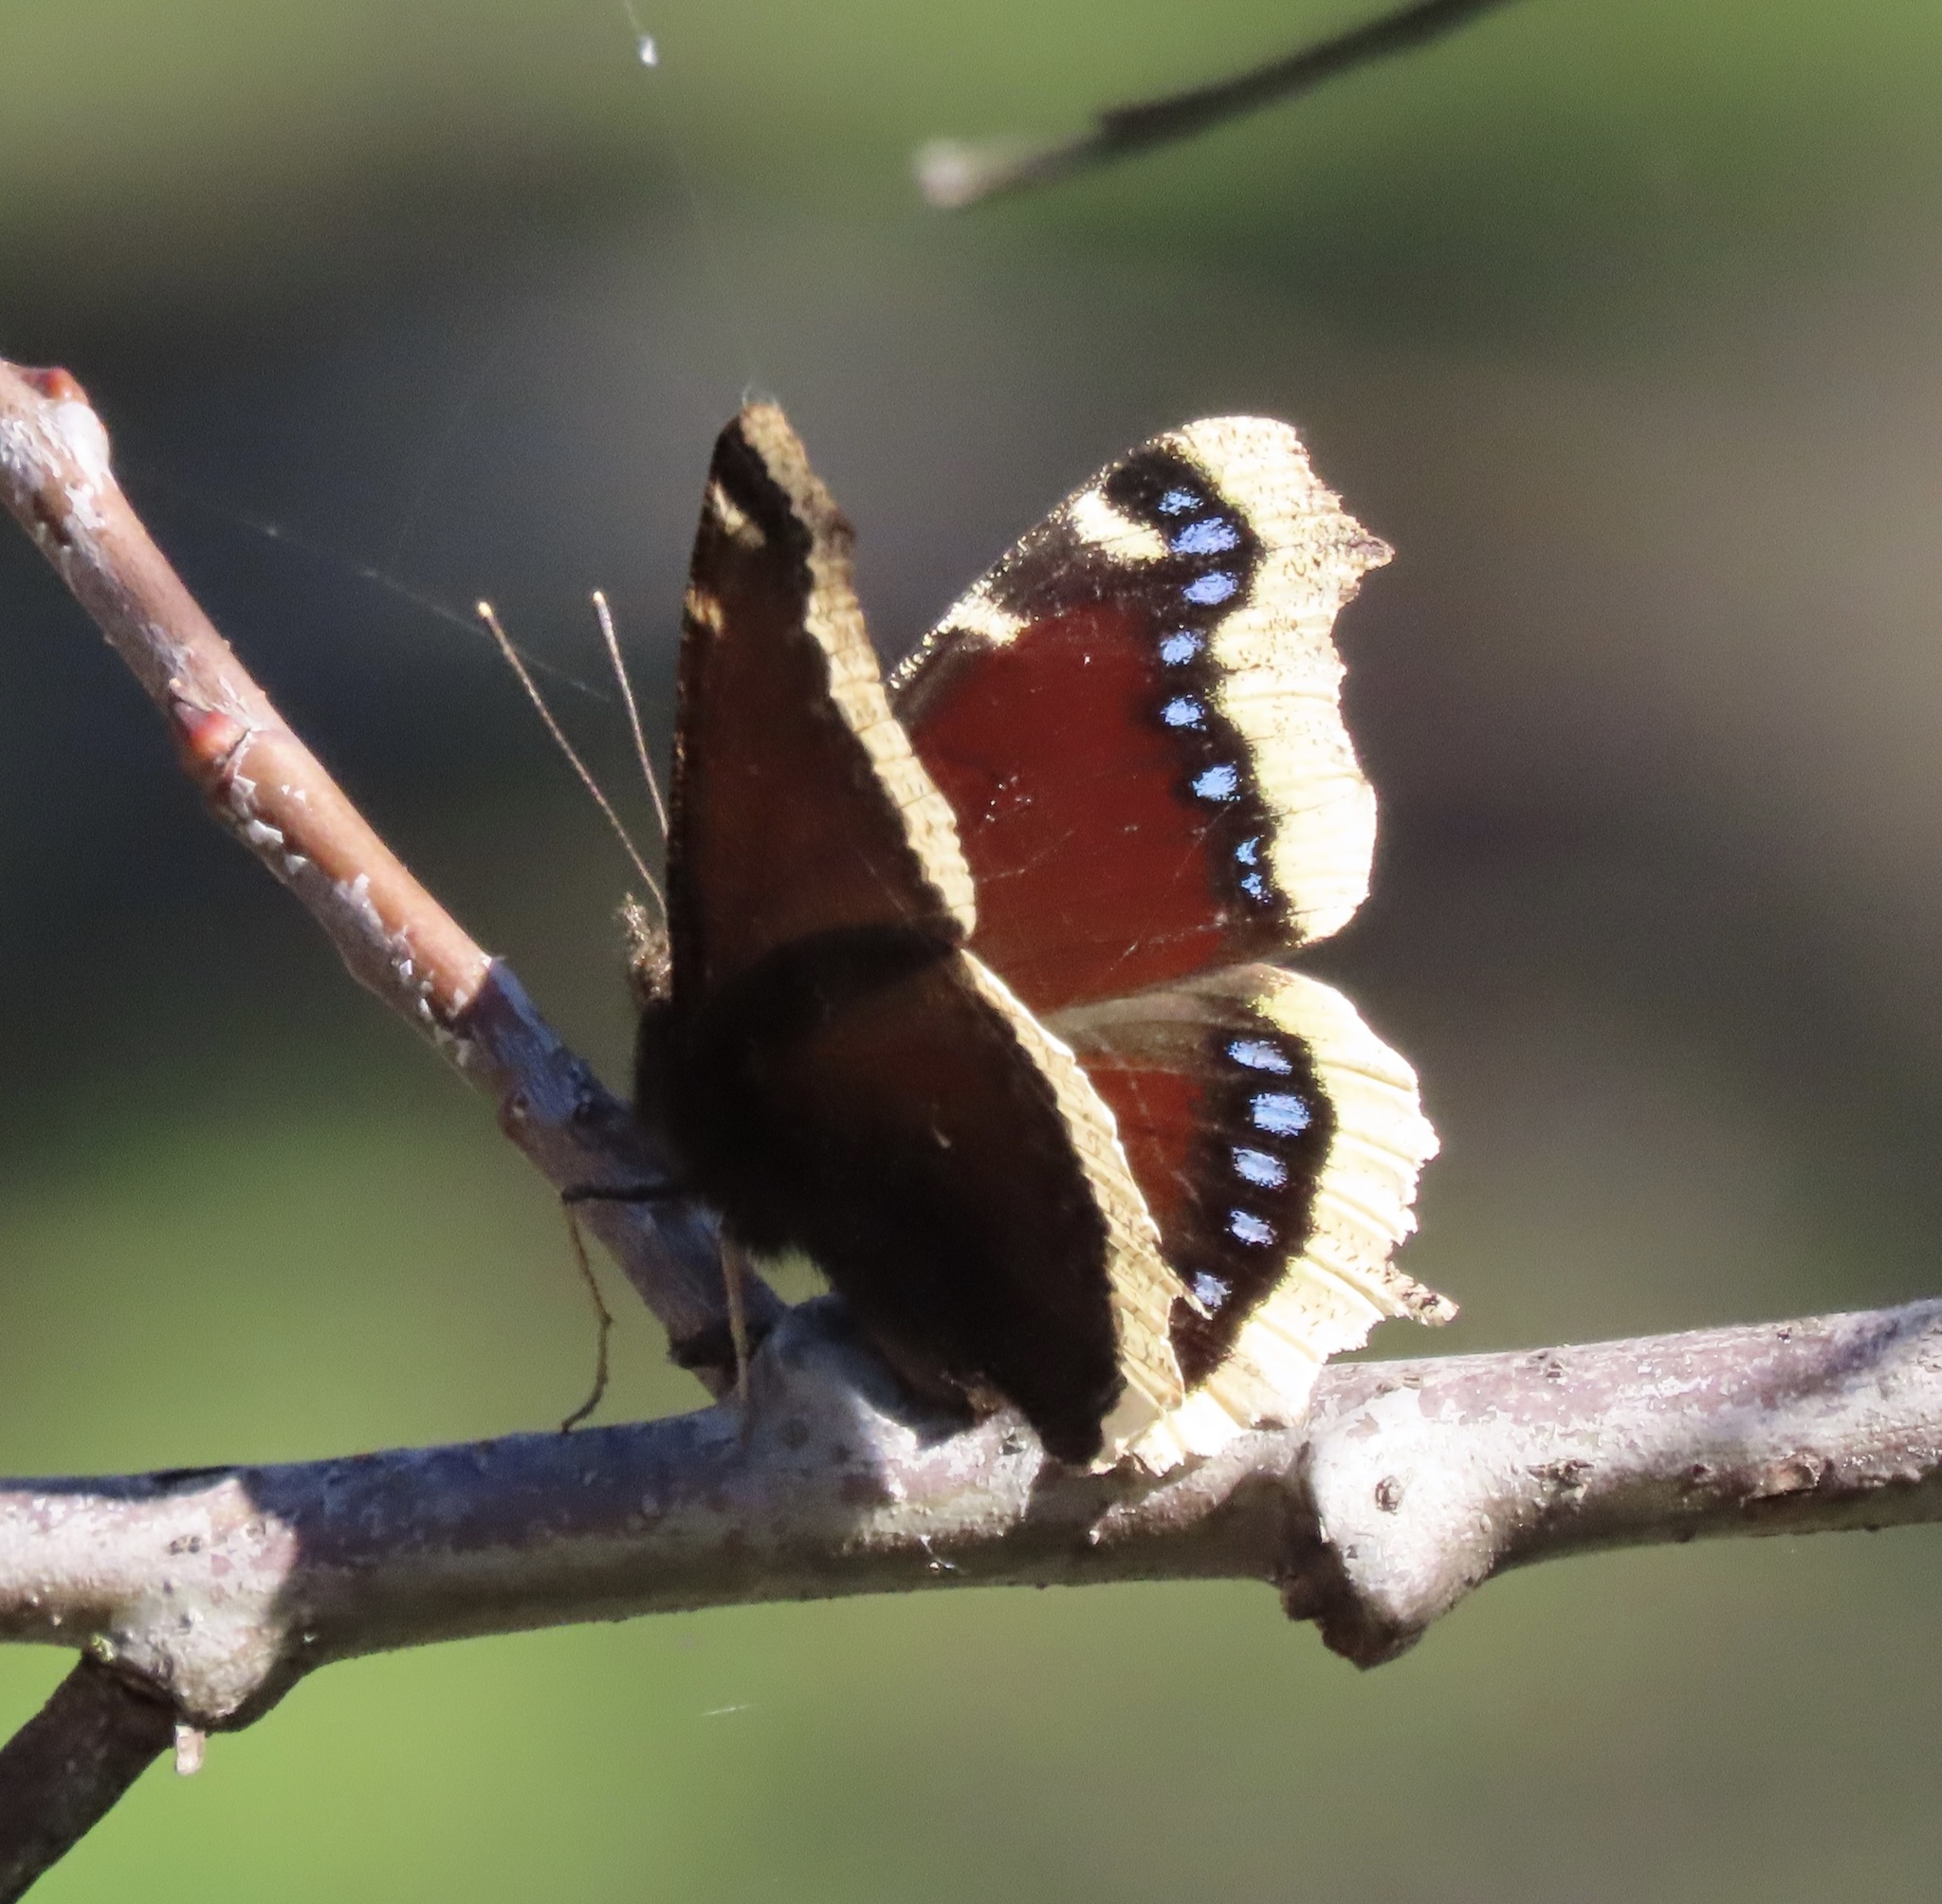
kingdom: Animalia
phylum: Arthropoda
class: Insecta
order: Lepidoptera
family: Nymphalidae
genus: Nymphalis
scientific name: Nymphalis antiopa
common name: Camberwell beauty
